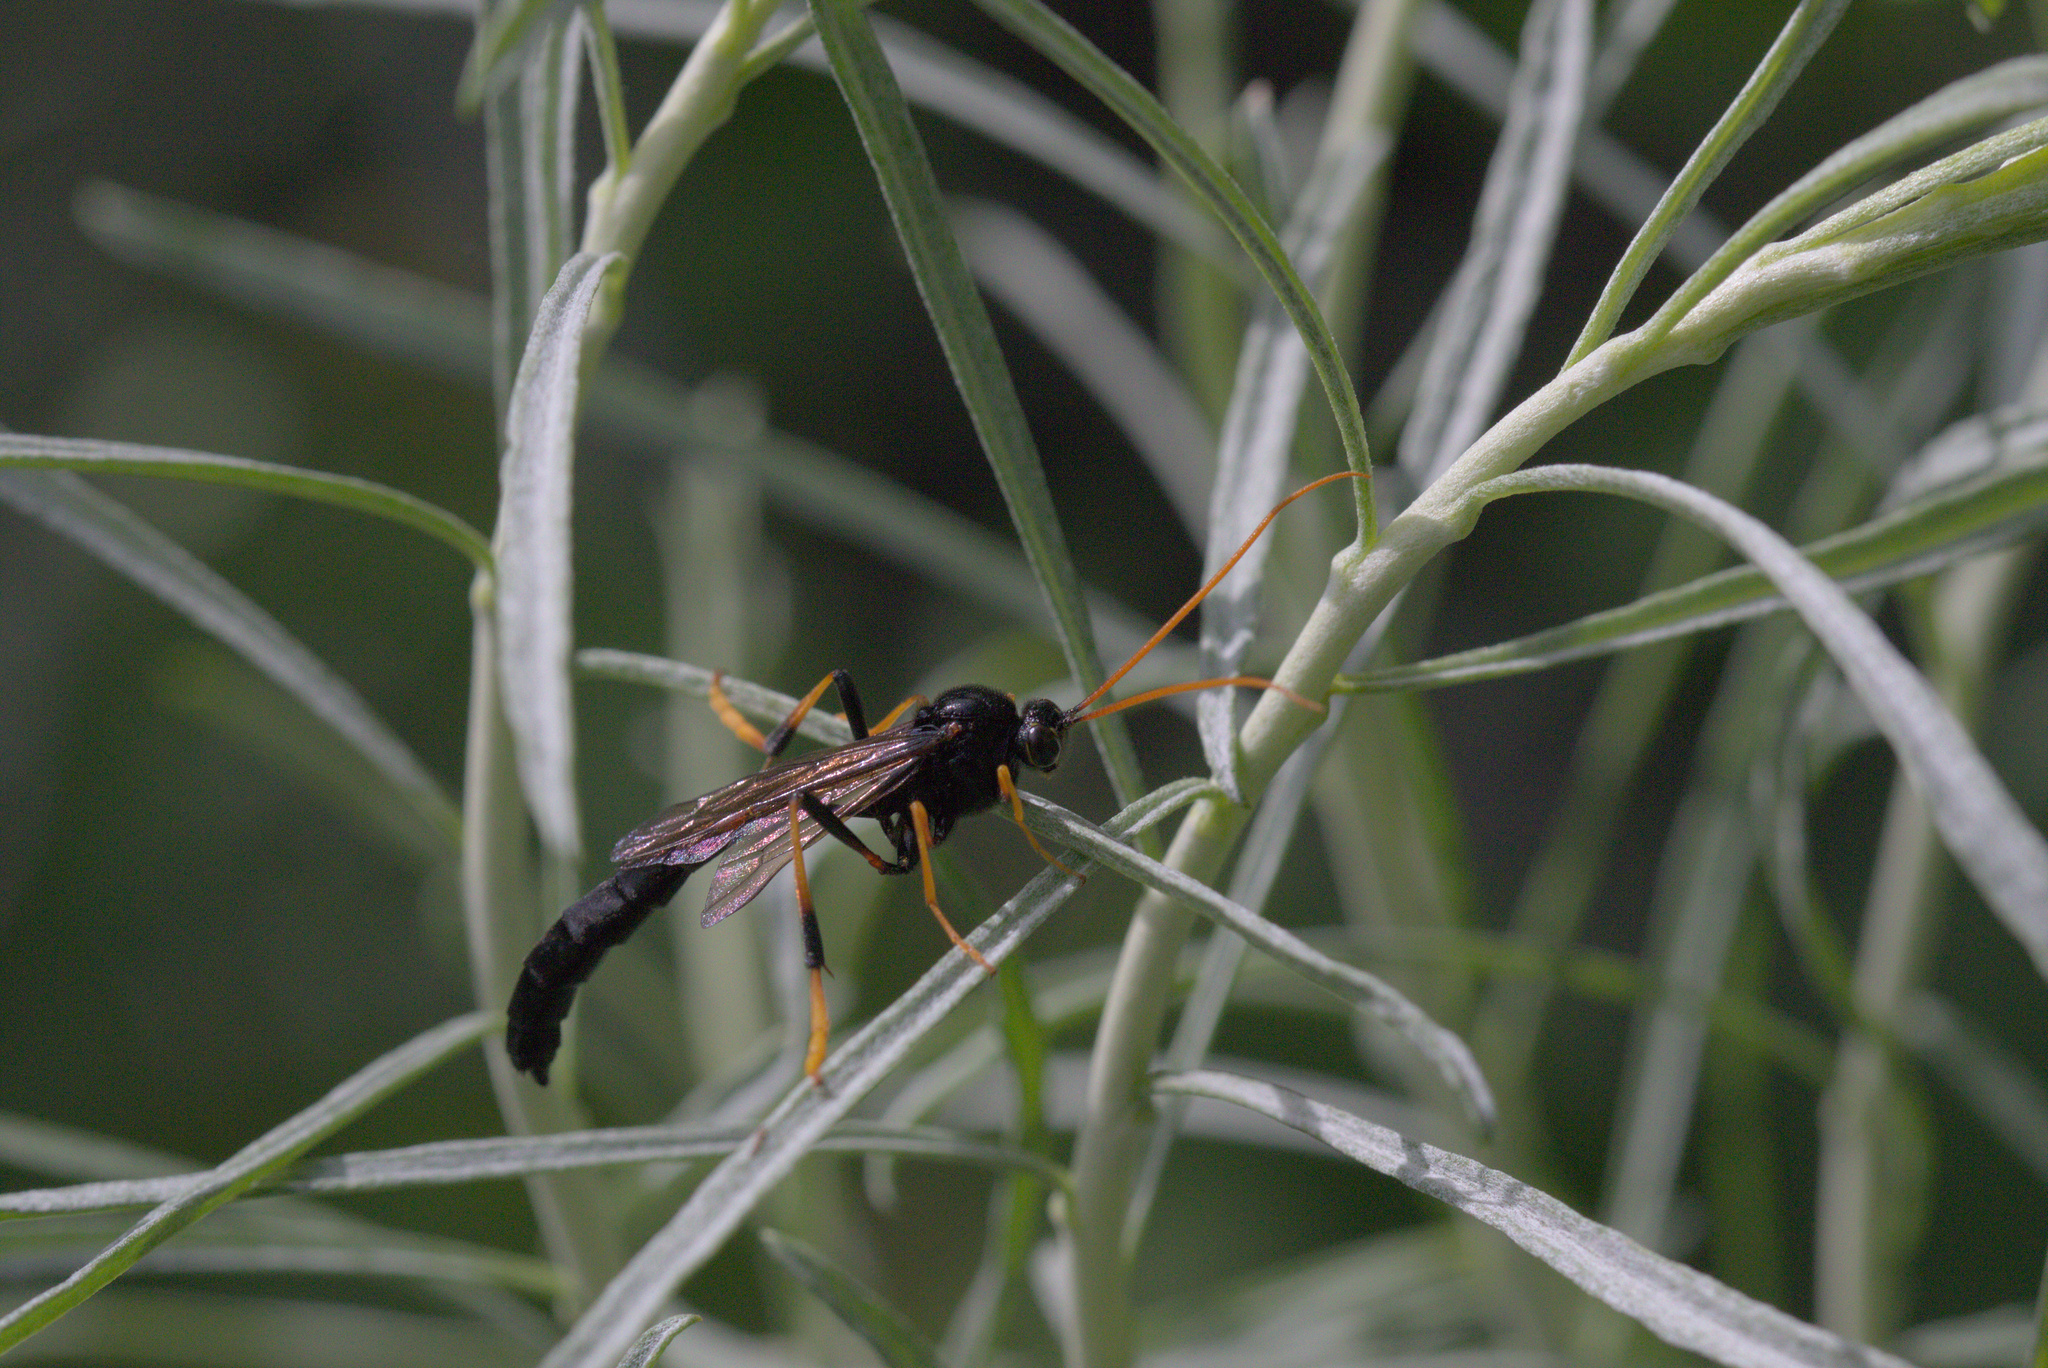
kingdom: Animalia
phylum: Arthropoda
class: Insecta
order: Hymenoptera
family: Ichneumonidae
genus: Therion
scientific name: Therion morio
